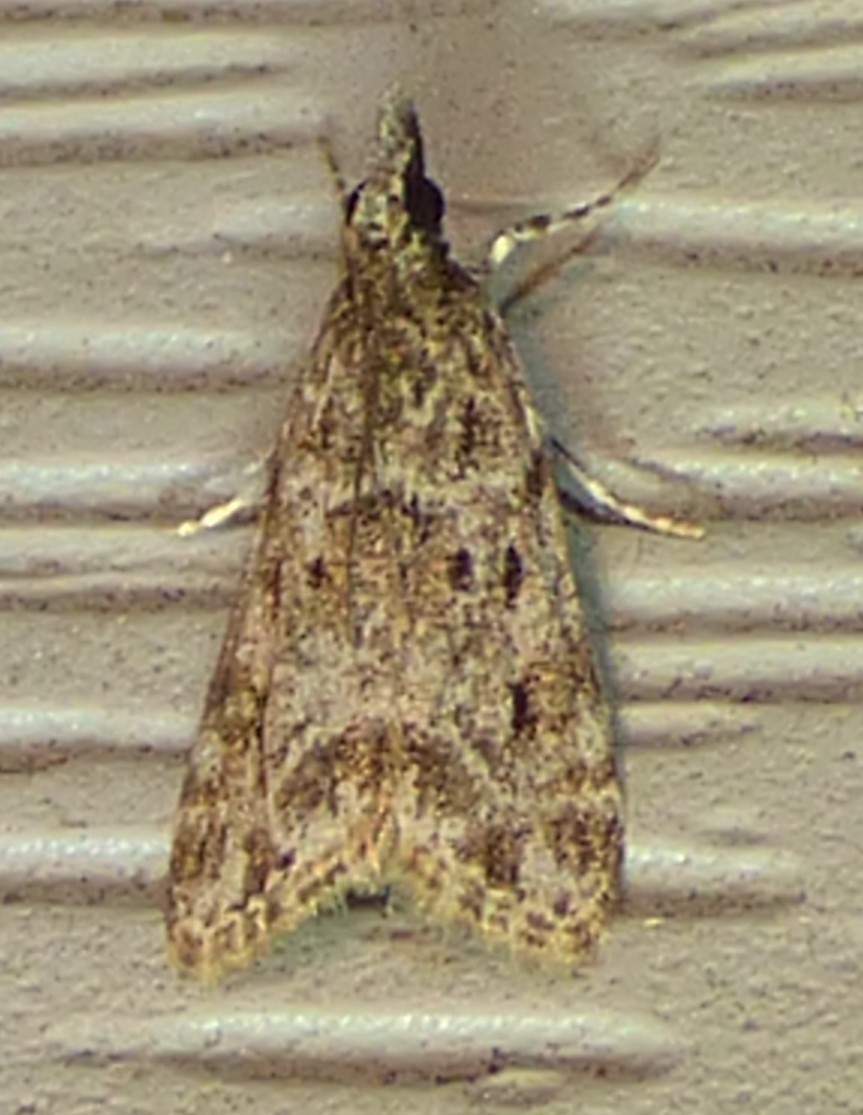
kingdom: Animalia
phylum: Arthropoda
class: Insecta
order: Lepidoptera
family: Crambidae
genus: Eudonia
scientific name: Eudonia heterosalis
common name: Mcdunnough's eudonia
